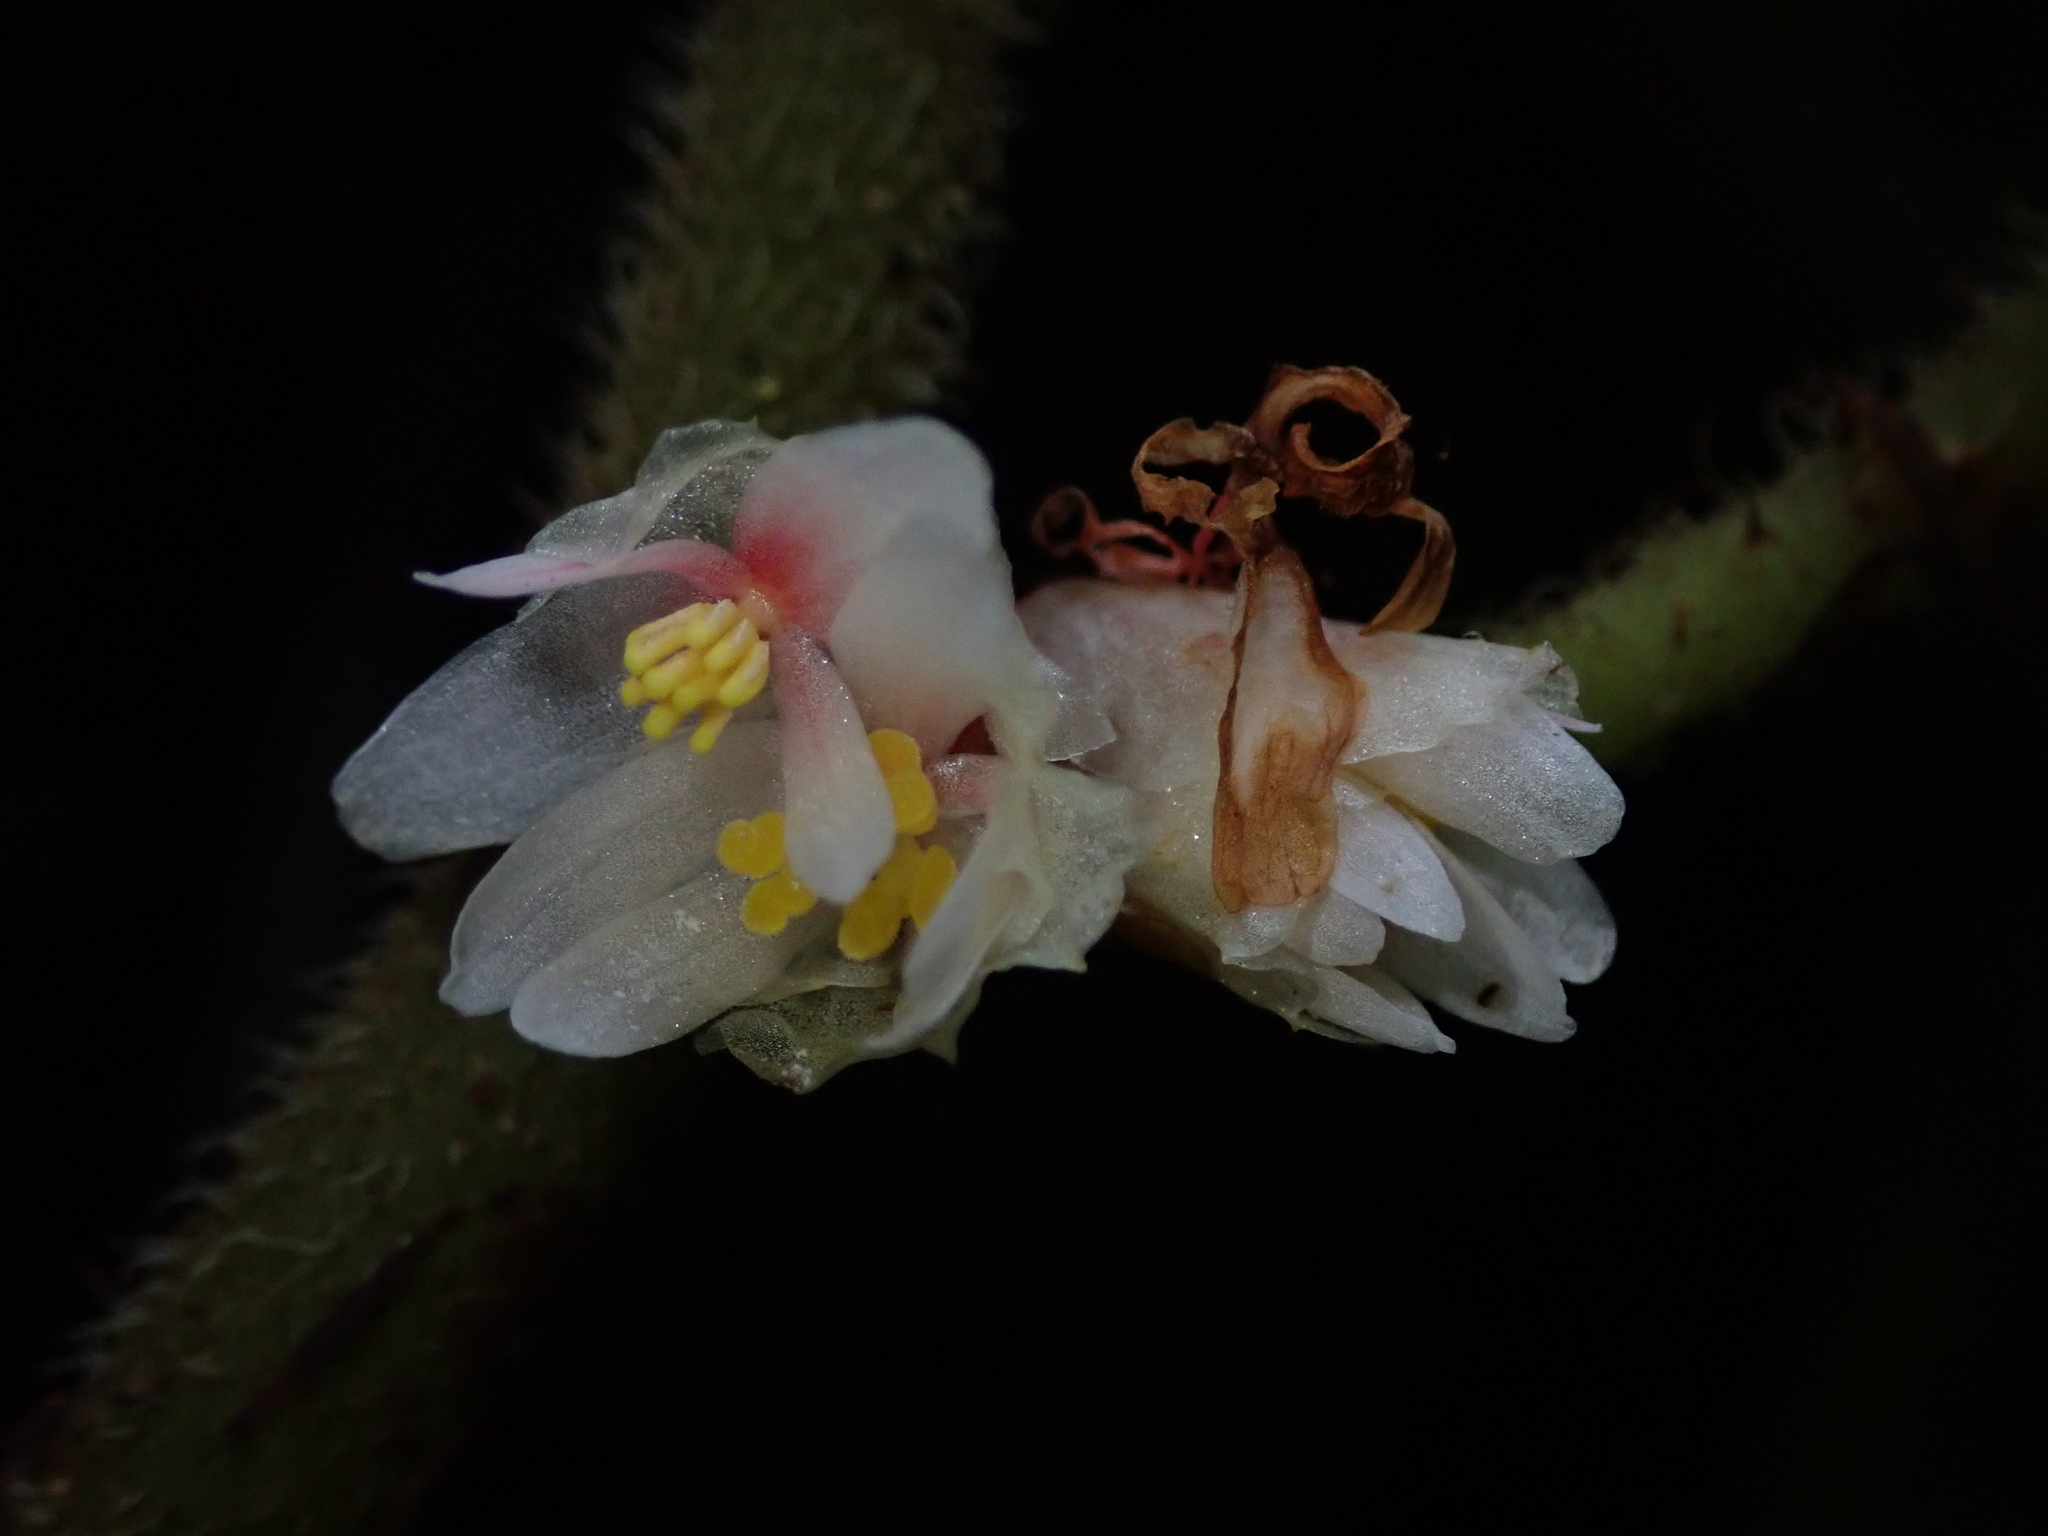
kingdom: Plantae
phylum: Tracheophyta
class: Magnoliopsida
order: Cucurbitales
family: Begoniaceae
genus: Begonia
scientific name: Begonia tiliifolia
